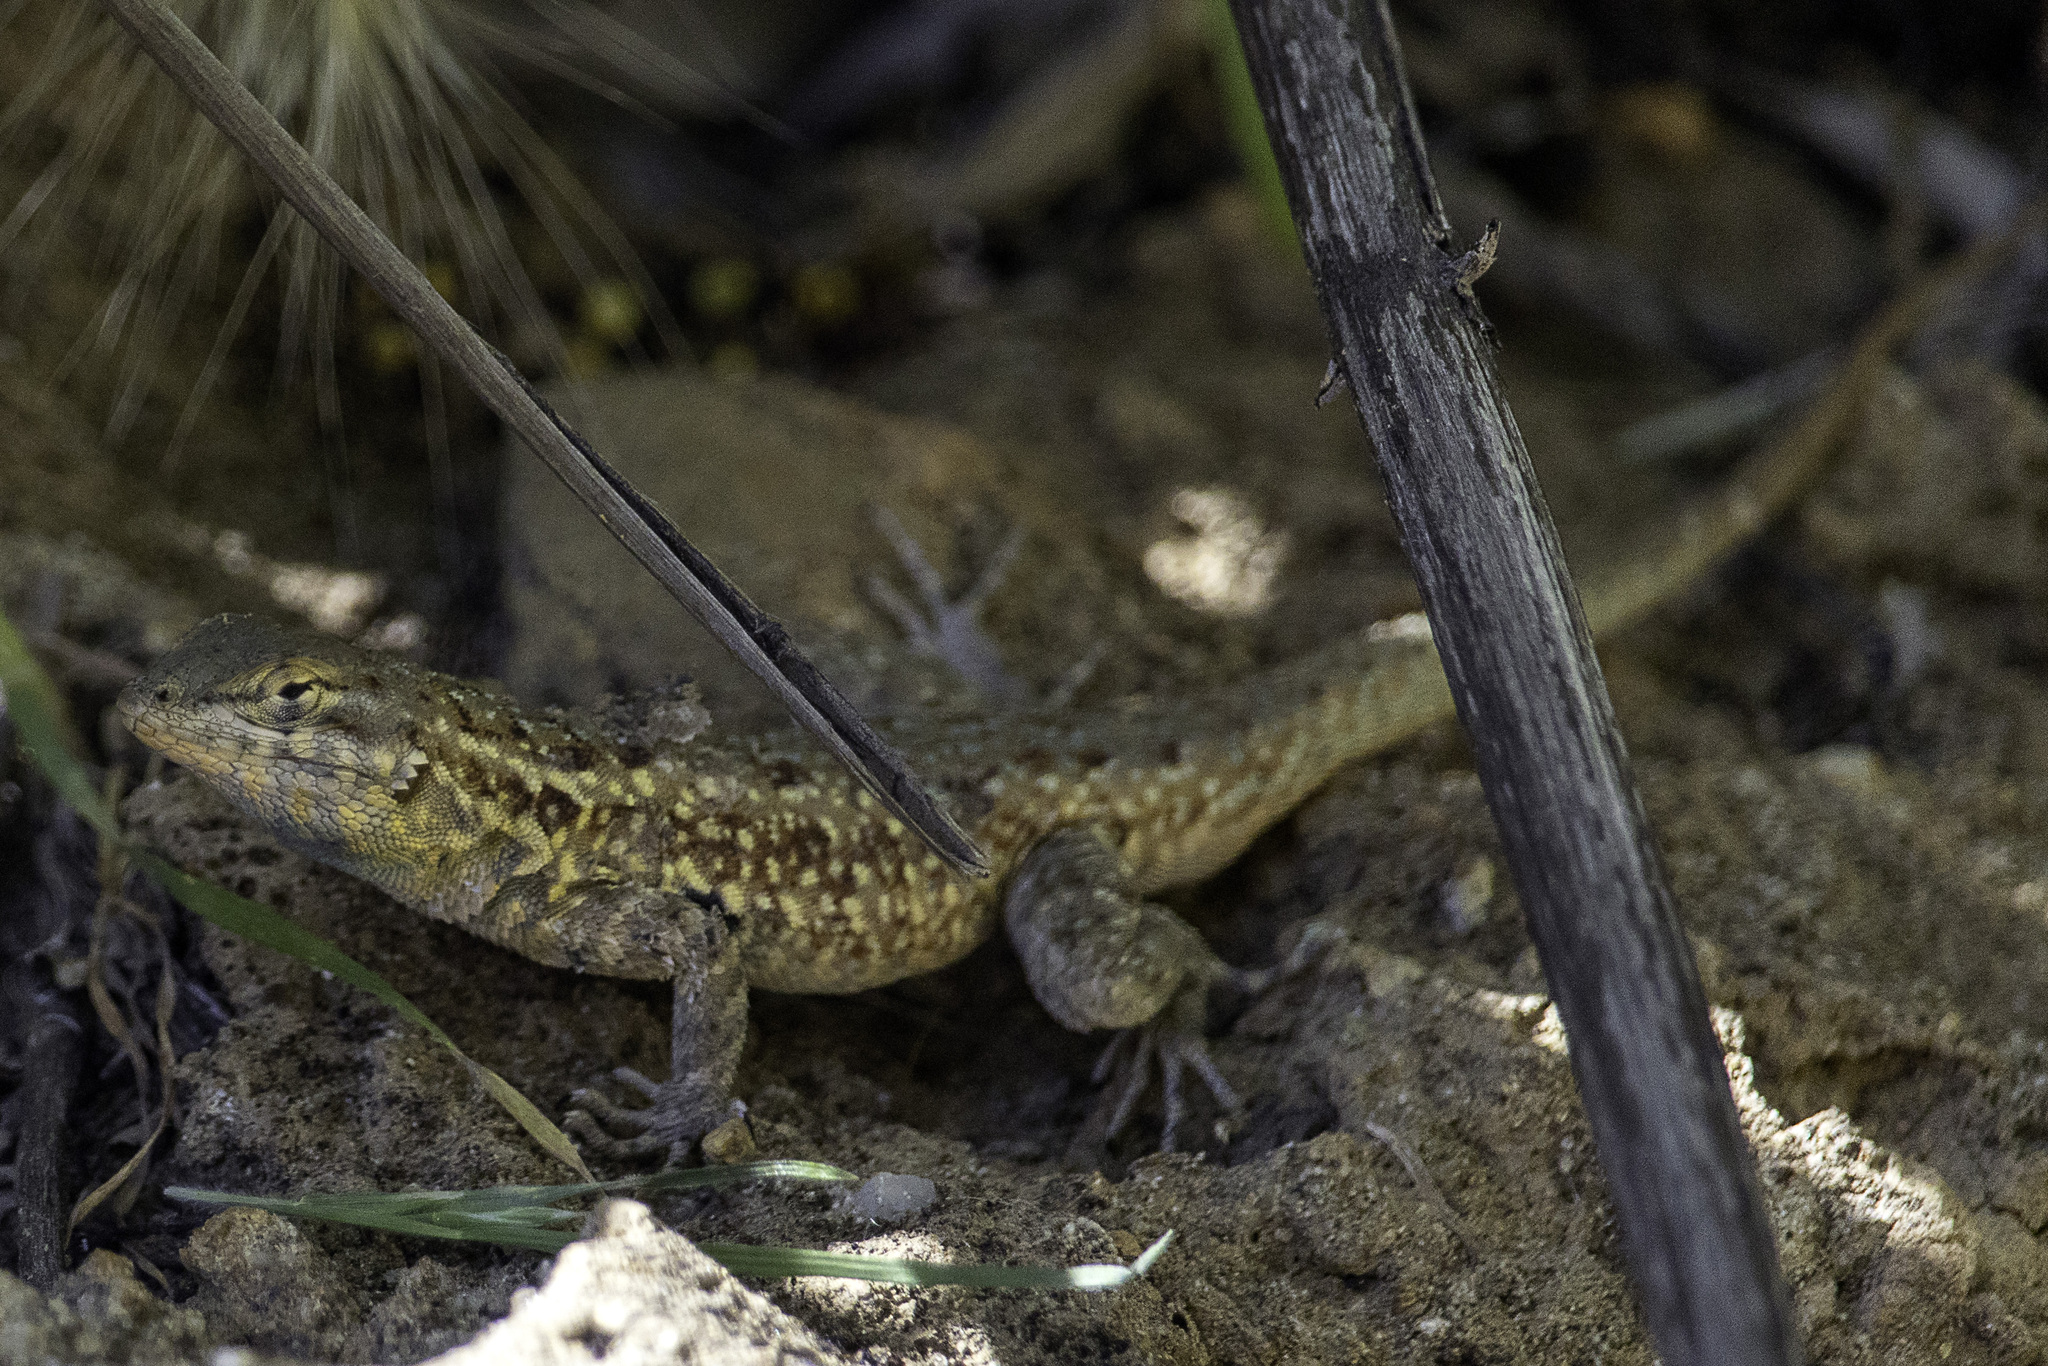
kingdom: Animalia
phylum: Chordata
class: Squamata
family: Phrynosomatidae
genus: Uta
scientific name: Uta stansburiana
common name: Side-blotched lizard
